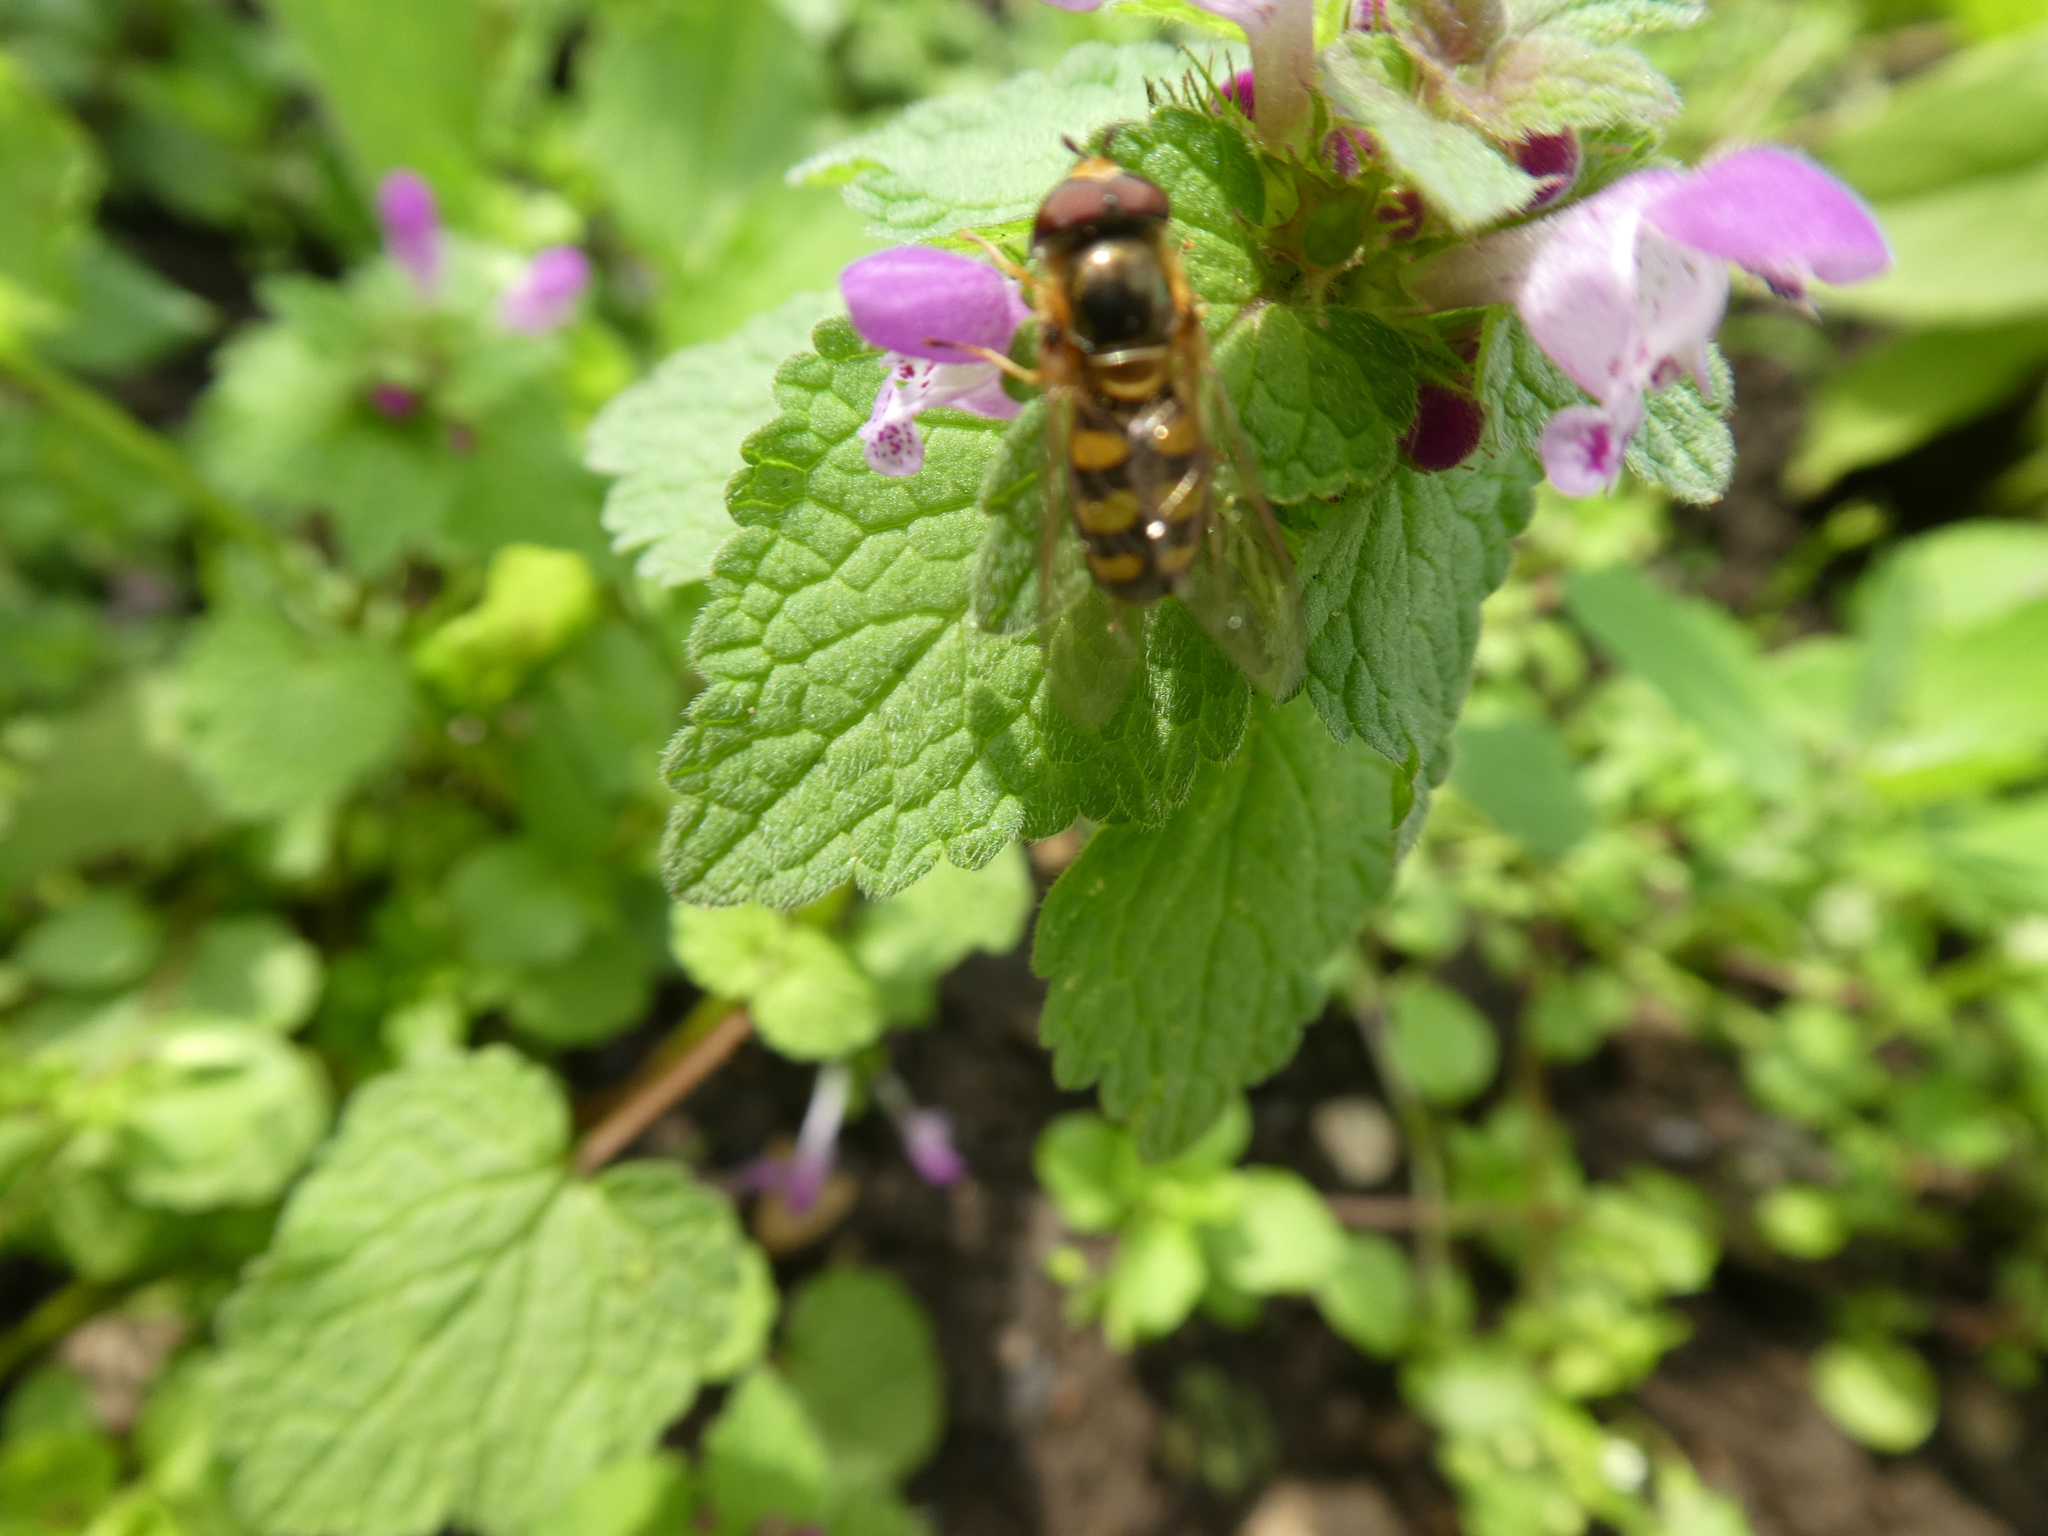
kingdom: Plantae
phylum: Tracheophyta
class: Magnoliopsida
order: Lamiales
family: Lamiaceae
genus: Lamium
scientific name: Lamium purpureum
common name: Red dead-nettle
